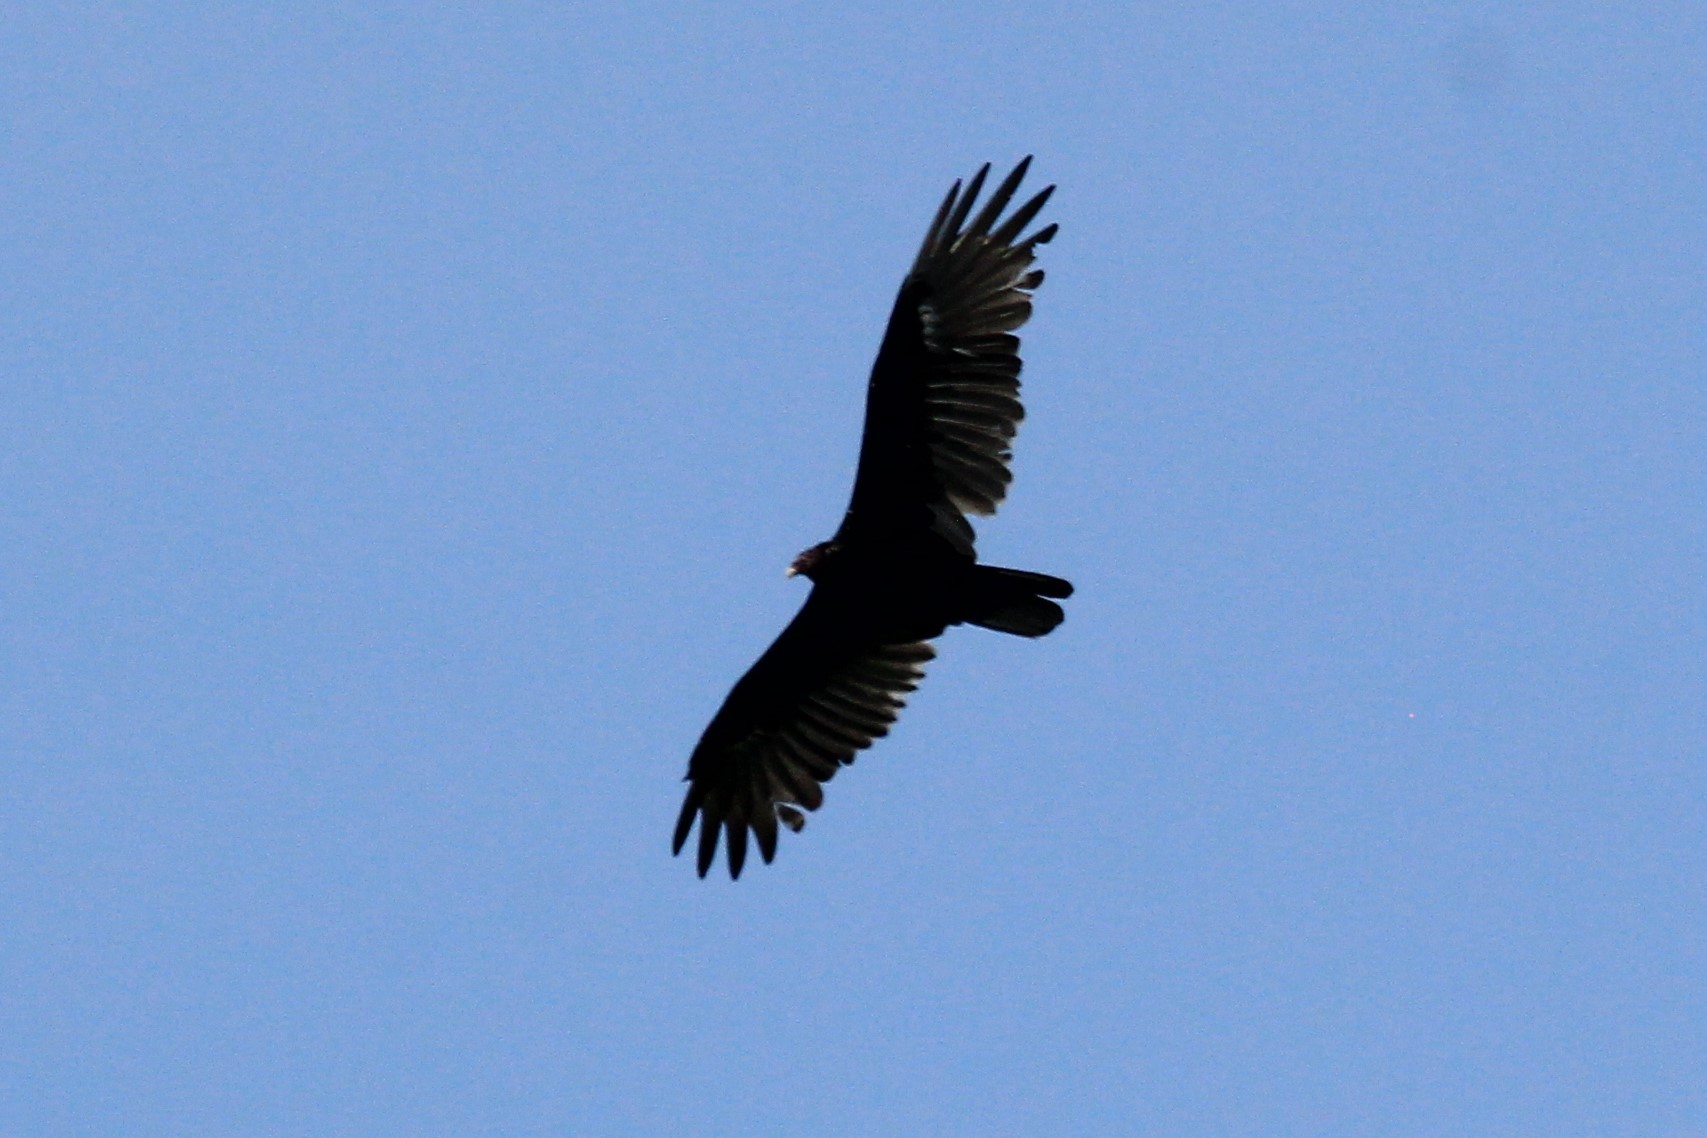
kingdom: Animalia
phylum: Chordata
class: Aves
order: Accipitriformes
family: Cathartidae
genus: Cathartes
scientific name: Cathartes aura
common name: Turkey vulture
